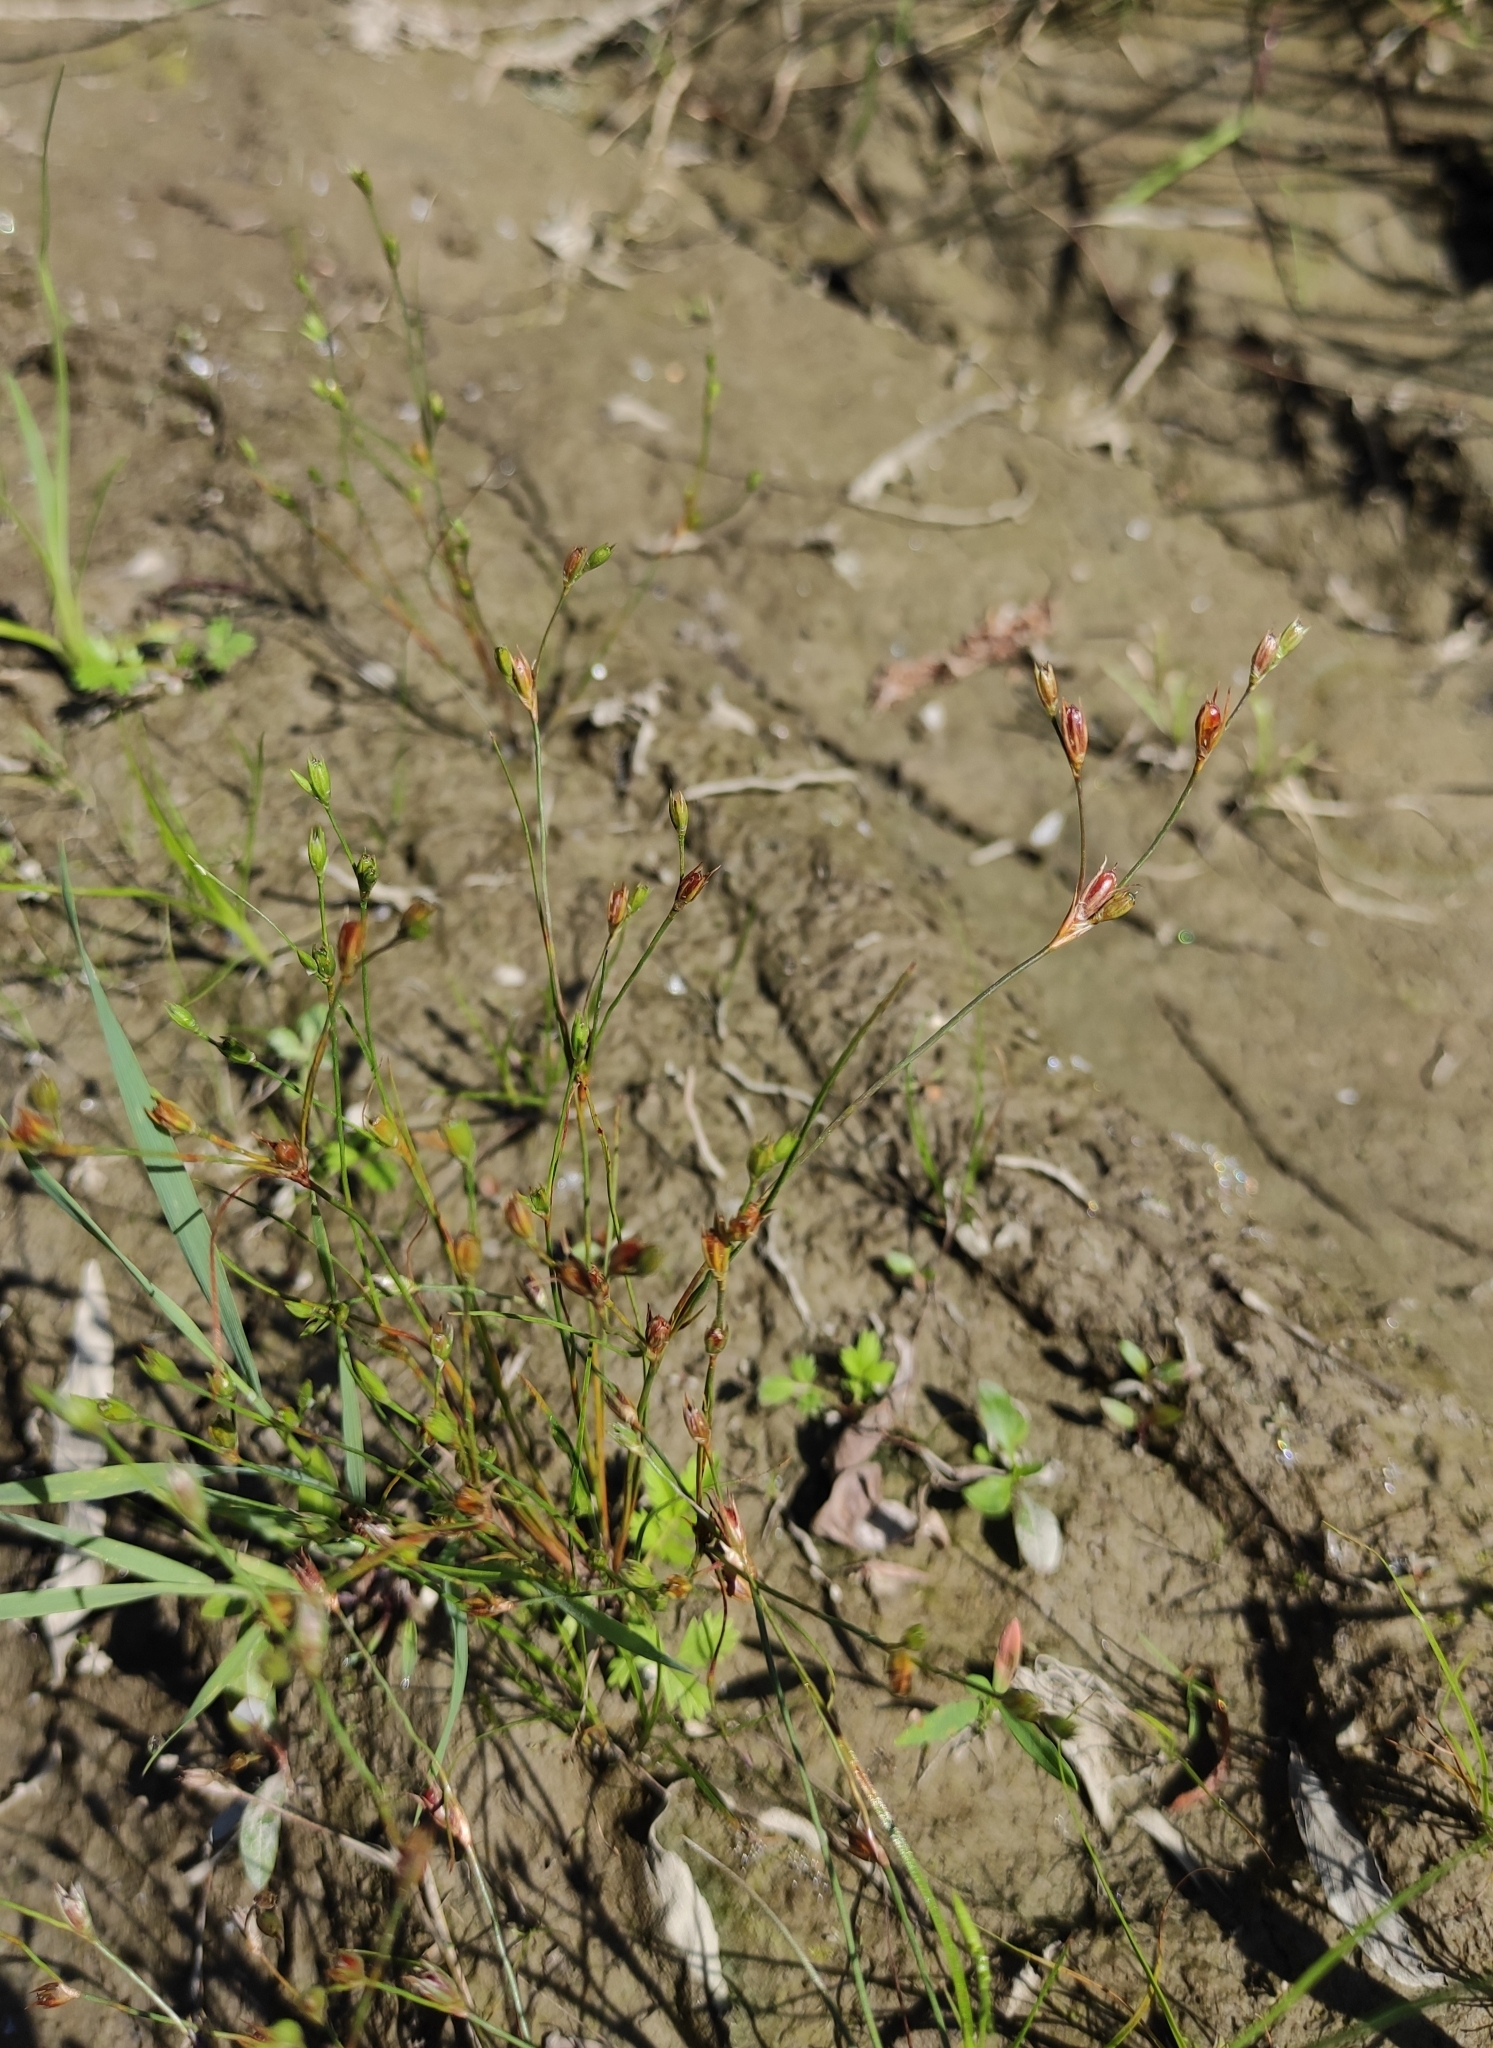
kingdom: Plantae
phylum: Tracheophyta
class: Liliopsida
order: Poales
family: Juncaceae
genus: Juncus
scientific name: Juncus bufonius
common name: Toad rush
